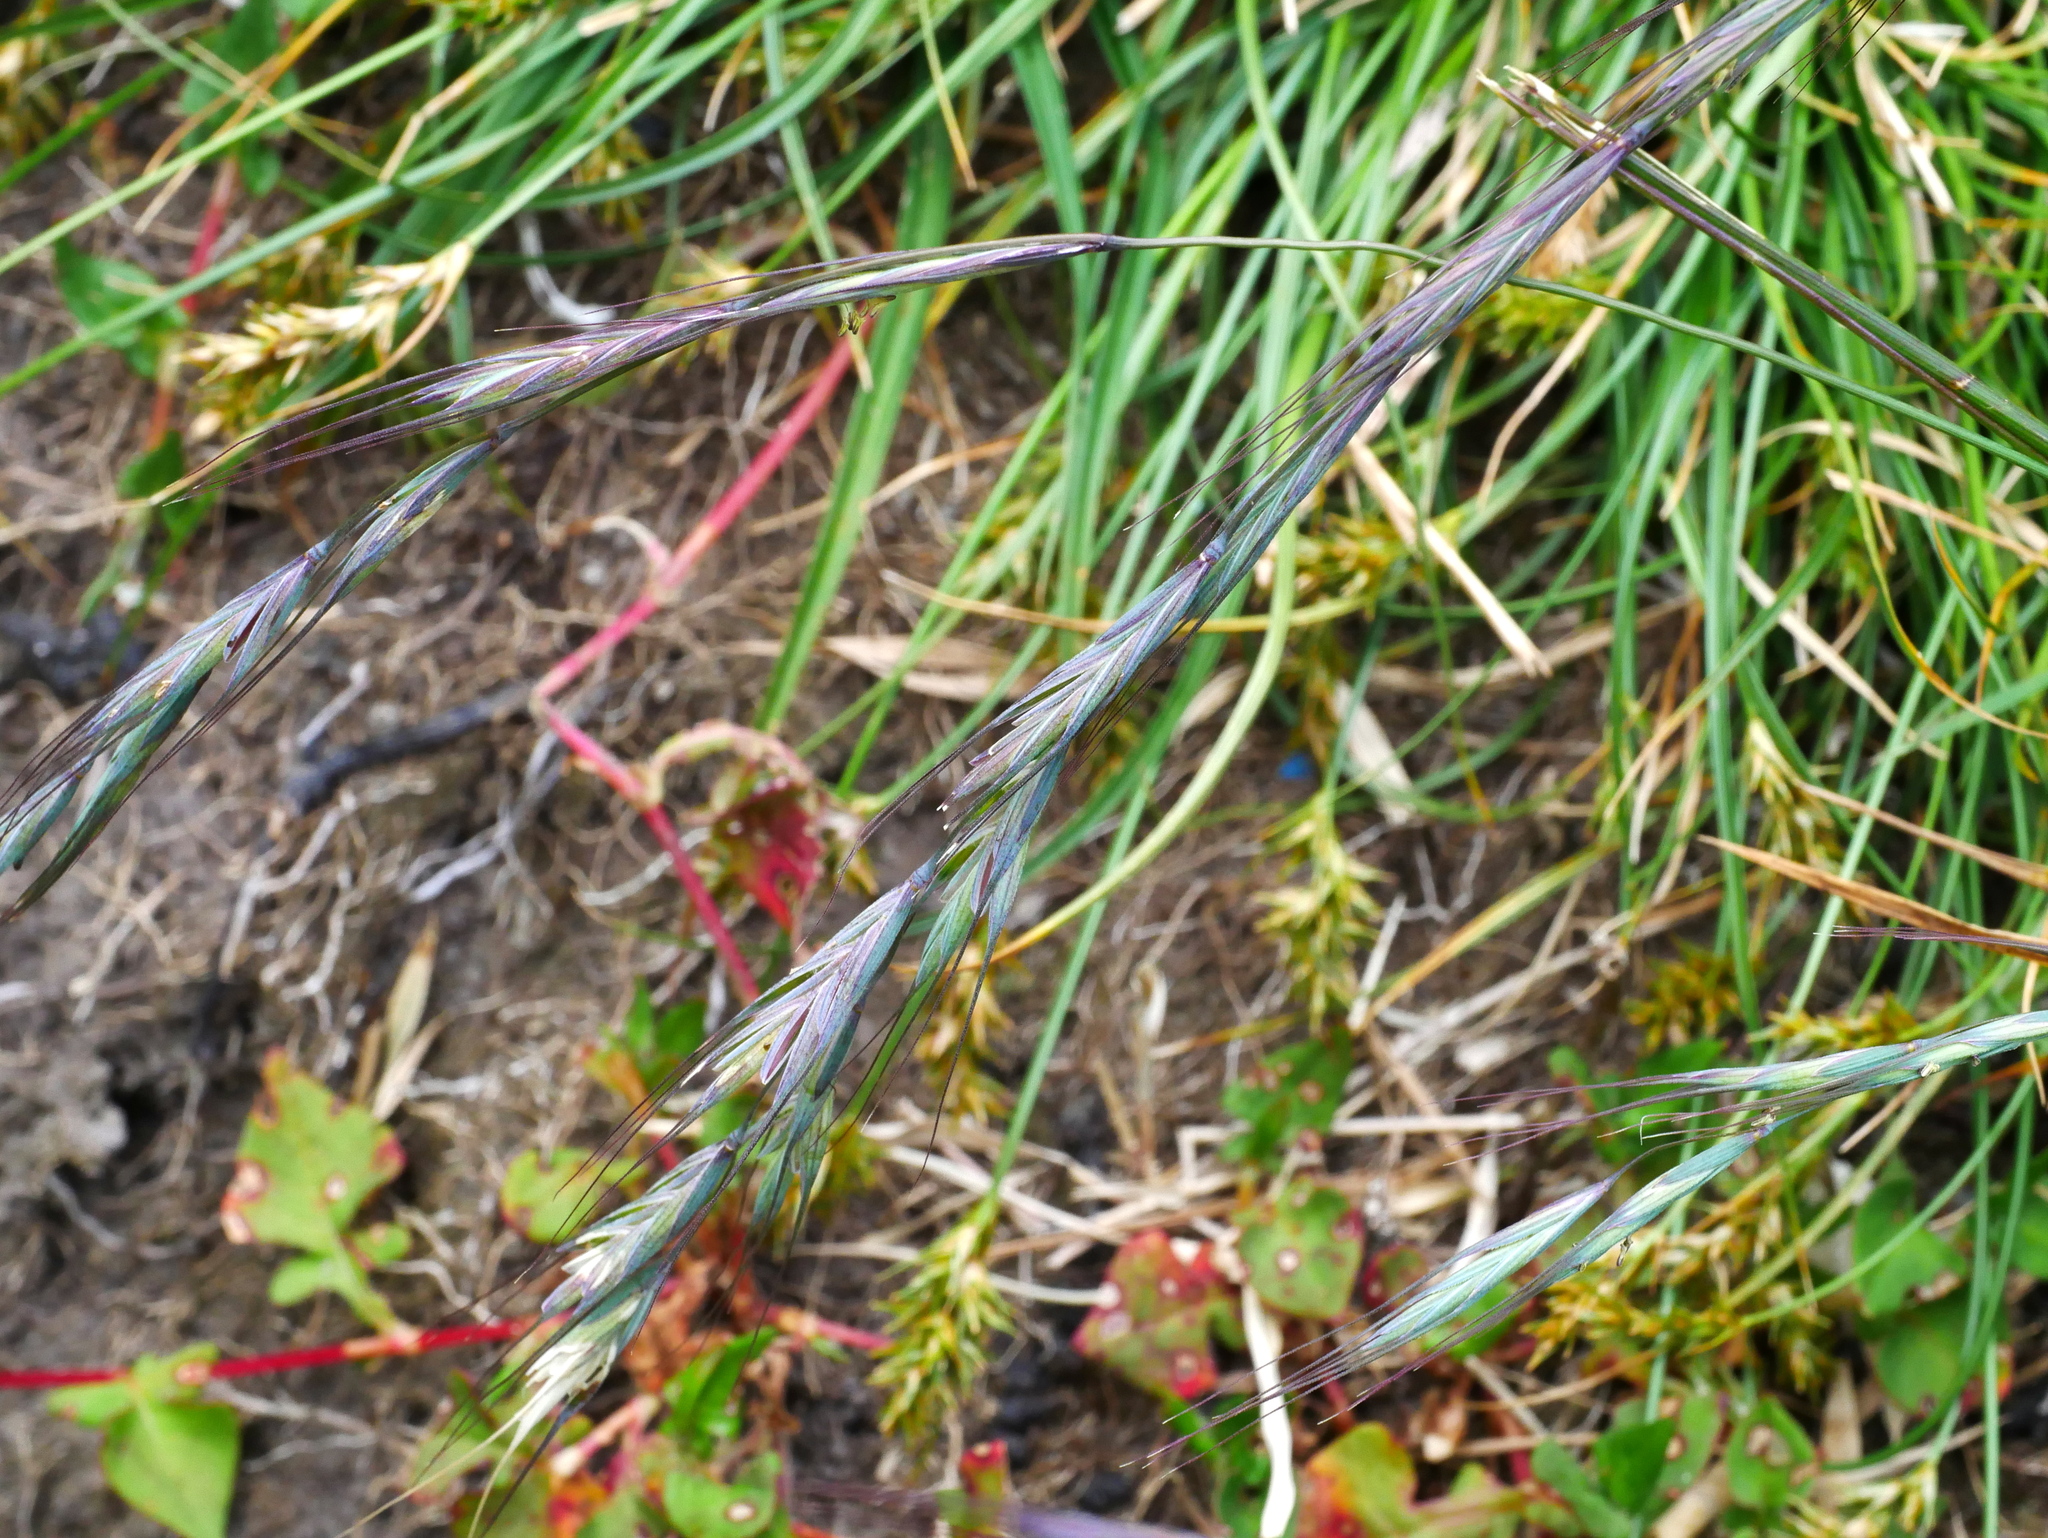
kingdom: Plantae
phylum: Tracheophyta
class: Liliopsida
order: Poales
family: Poaceae
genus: Elymus
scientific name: Elymus formosanus
